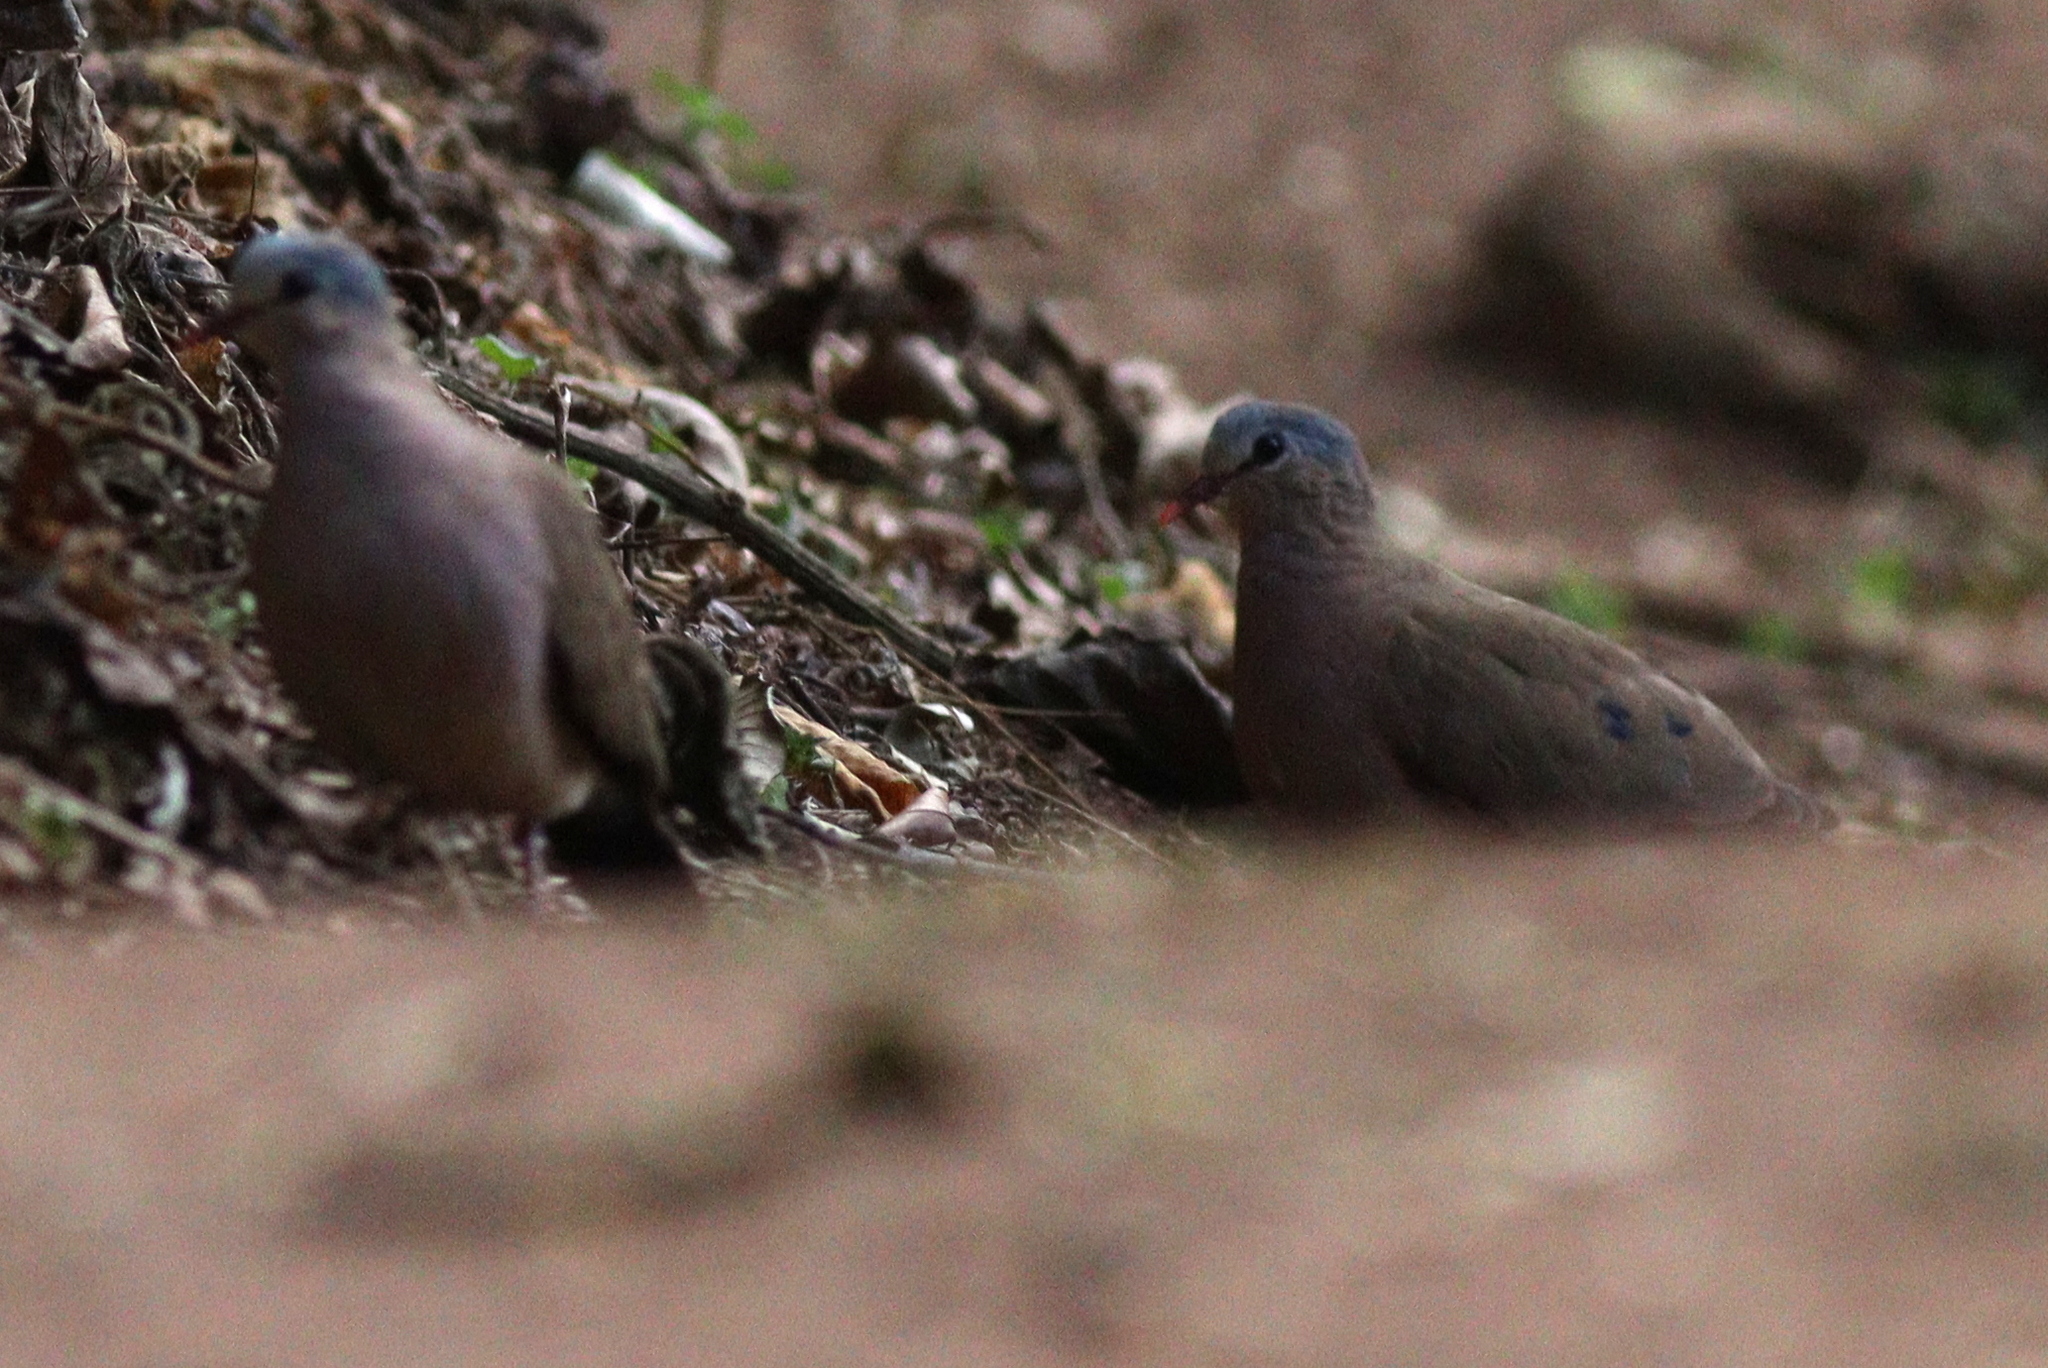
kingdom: Animalia
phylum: Chordata
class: Aves
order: Columbiformes
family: Columbidae
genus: Turtur
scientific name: Turtur afer
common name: Blue-spotted wood dove
